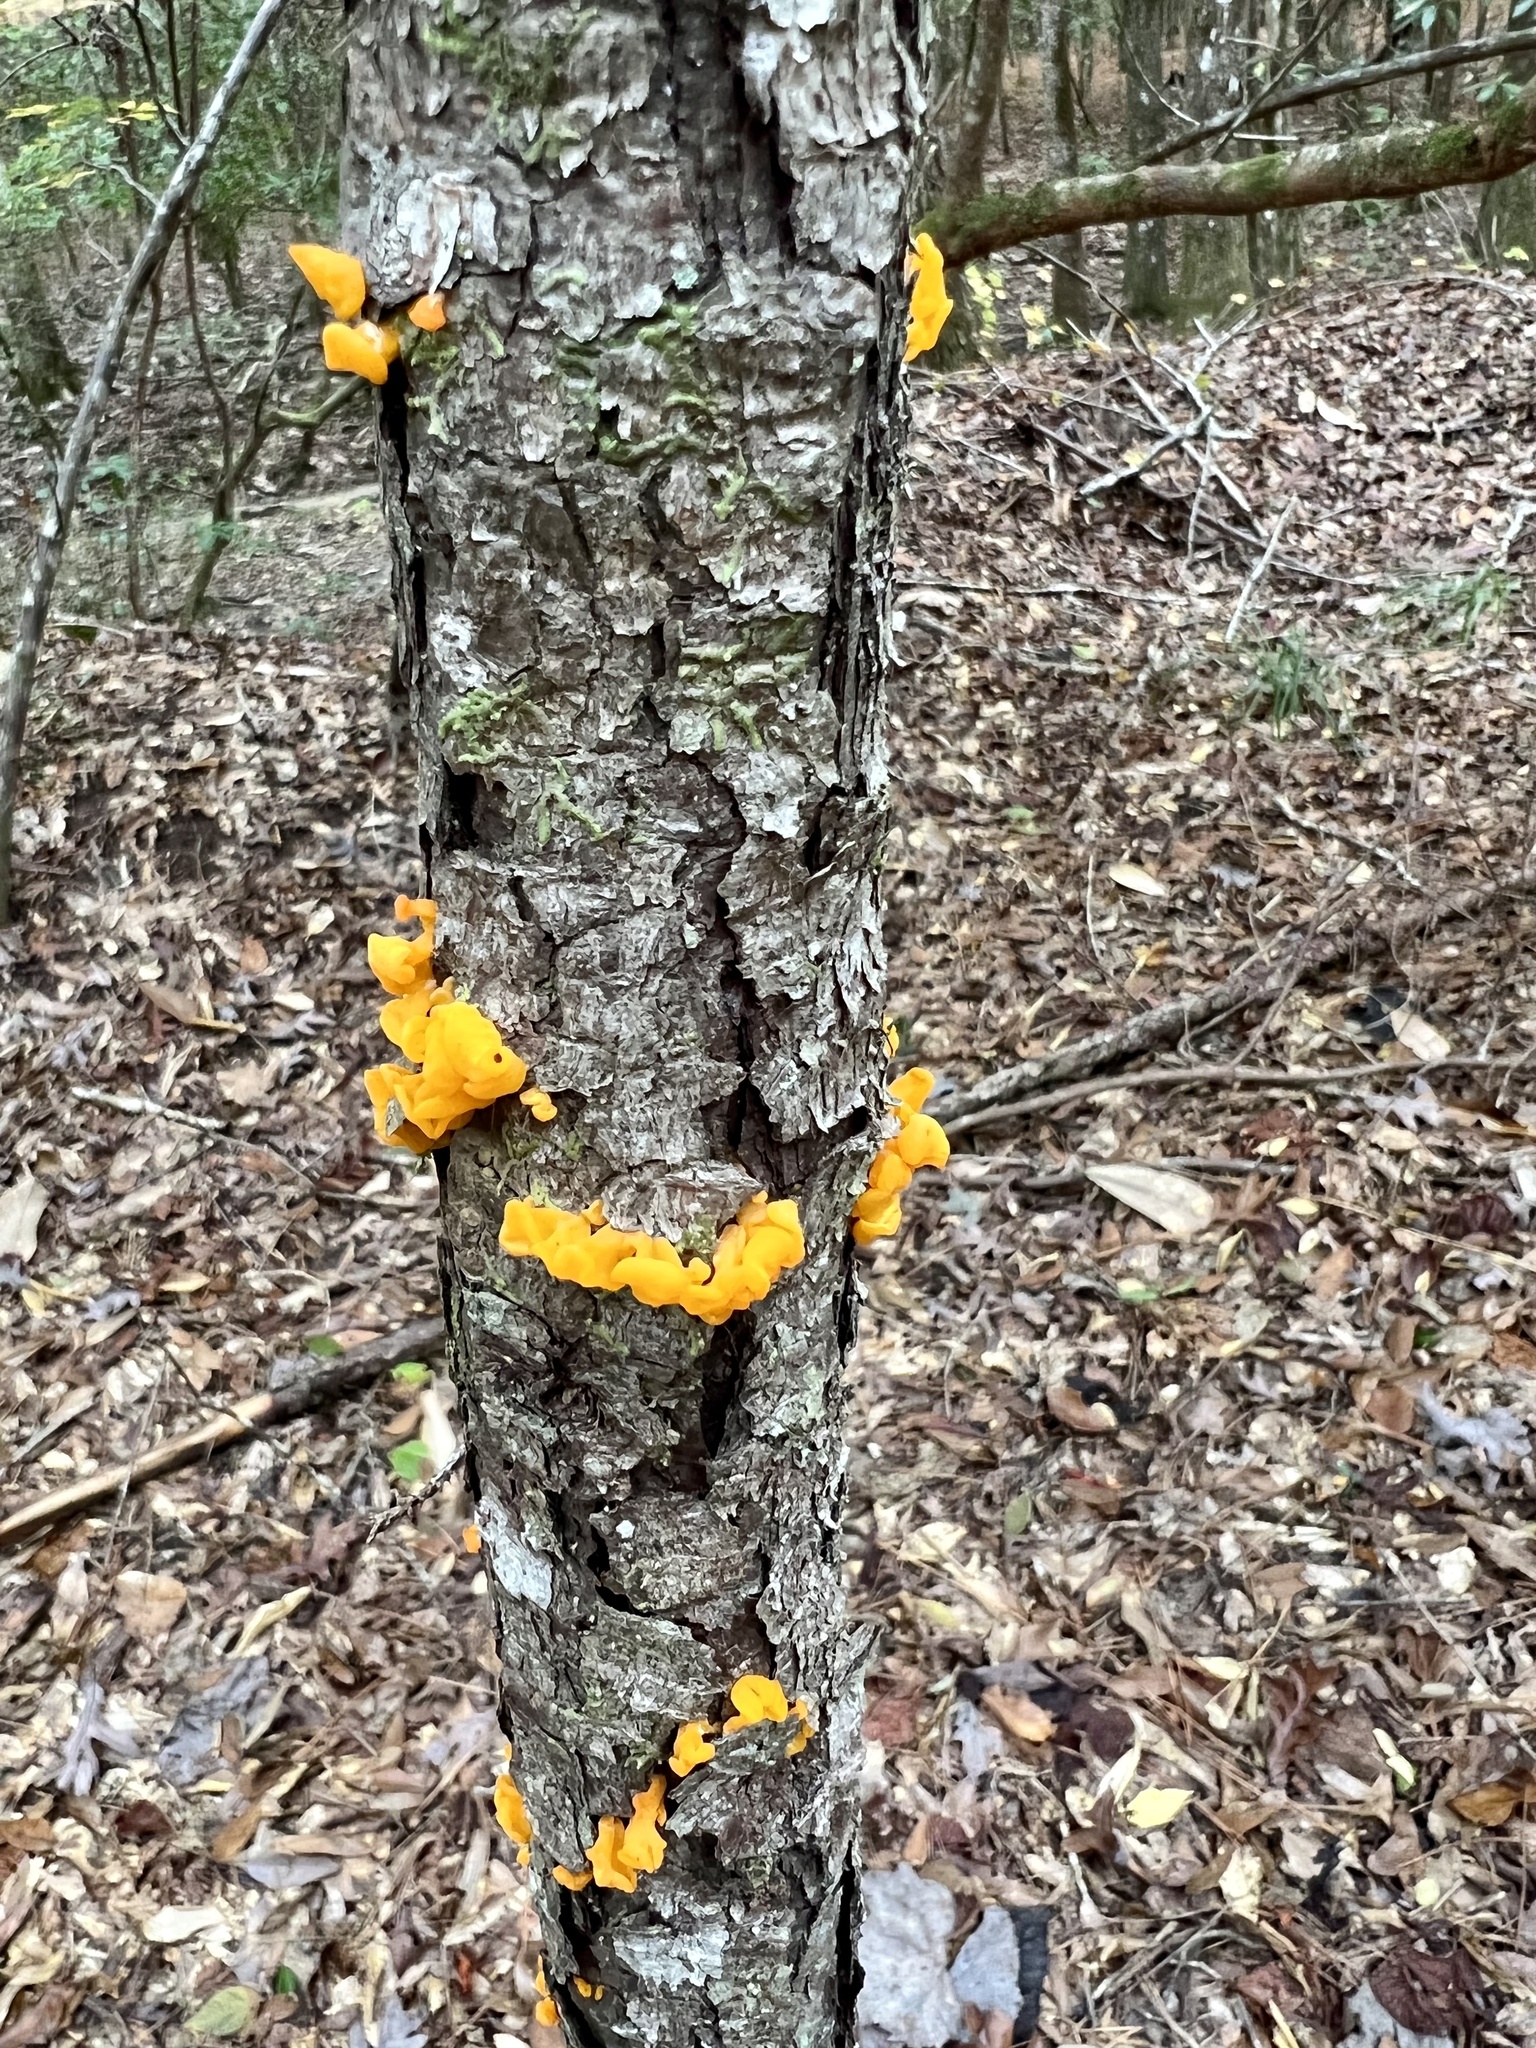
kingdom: Fungi
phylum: Basidiomycota
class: Dacrymycetes
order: Dacrymycetales
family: Dacrymycetaceae
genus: Dacrymyces
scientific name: Dacrymyces chrysospermus
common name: Orange jelly spot
